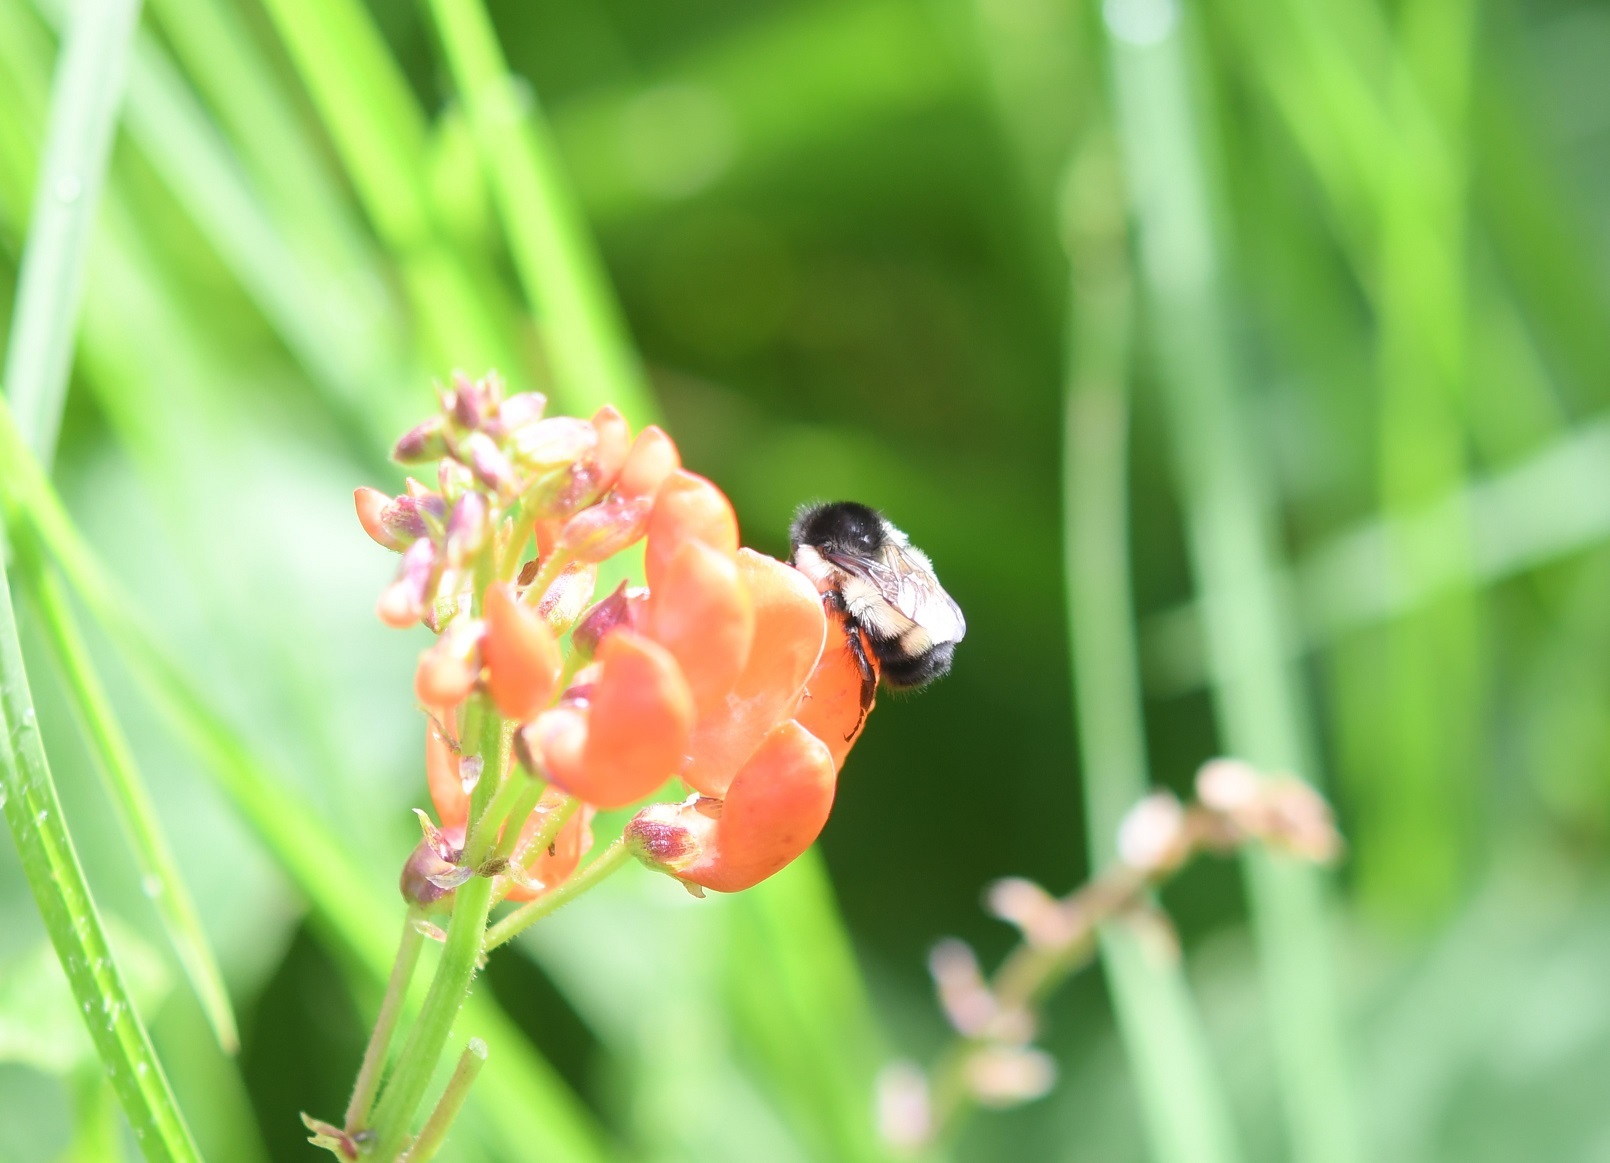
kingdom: Animalia
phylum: Arthropoda
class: Insecta
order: Hymenoptera
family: Apidae
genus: Bombus
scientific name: Bombus ephippiatus
